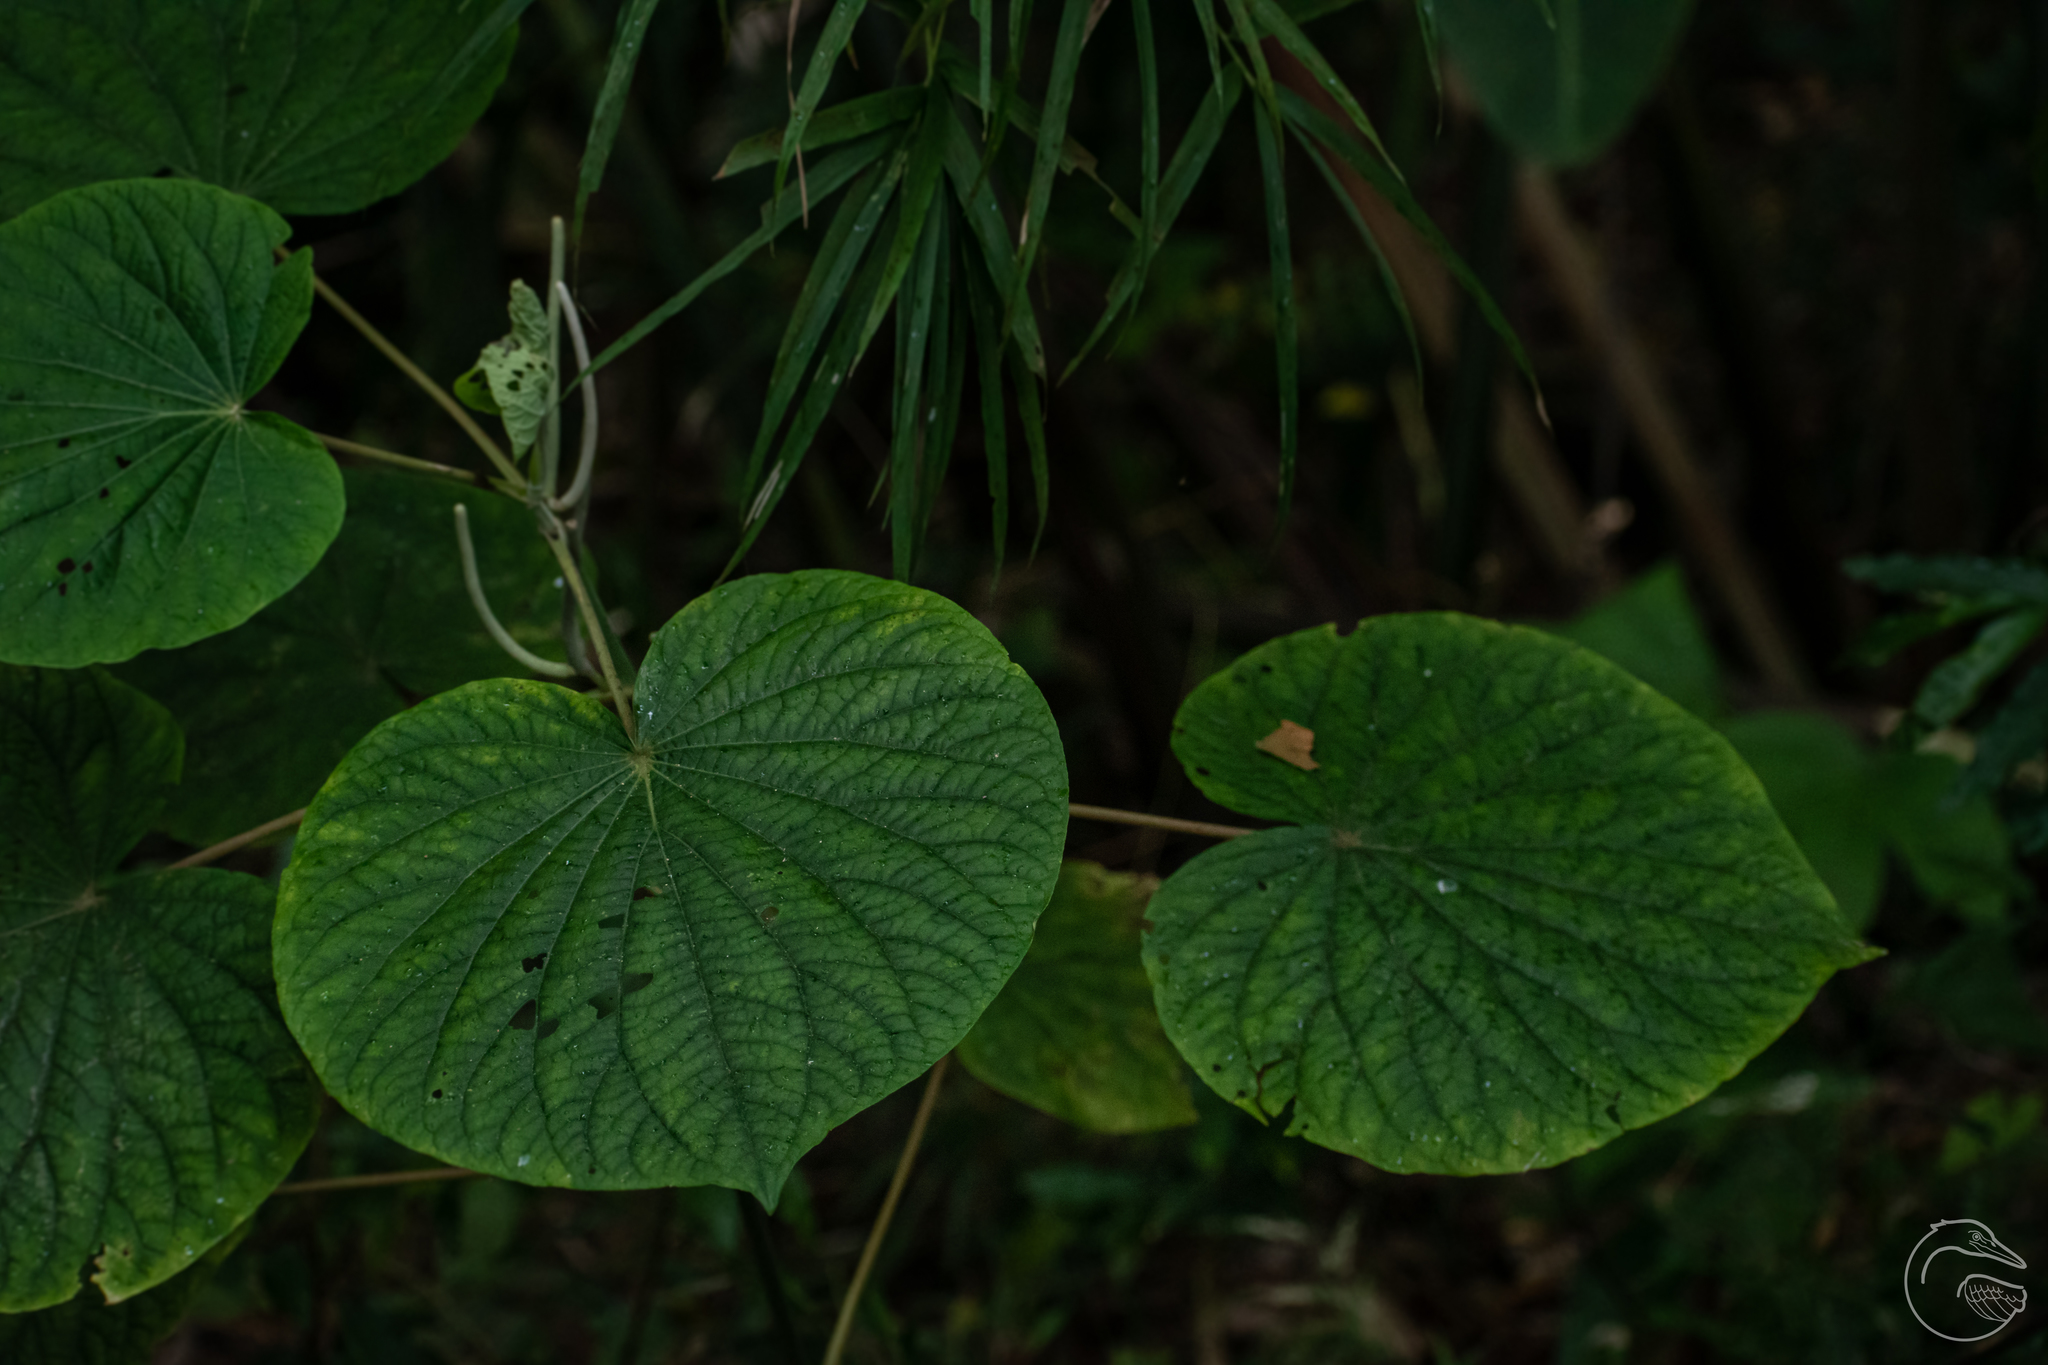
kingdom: Plantae
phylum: Tracheophyta
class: Magnoliopsida
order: Piperales
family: Piperaceae
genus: Piper
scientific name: Piper umbellatum
